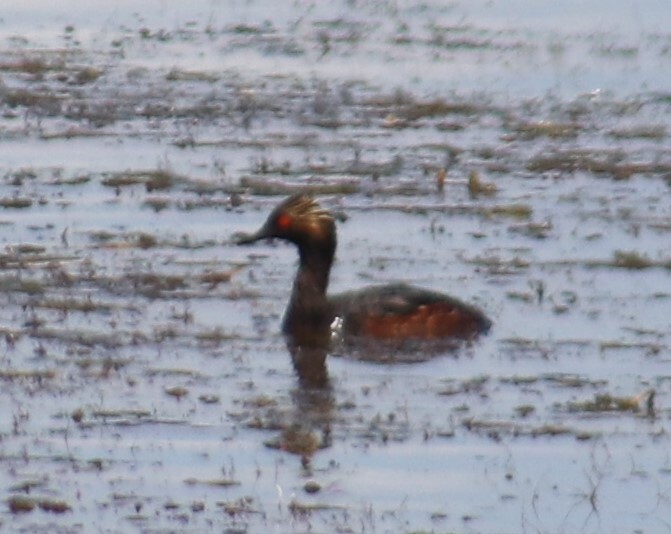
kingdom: Animalia
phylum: Chordata
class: Aves
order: Podicipediformes
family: Podicipedidae
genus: Podiceps
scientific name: Podiceps nigricollis
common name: Black-necked grebe
